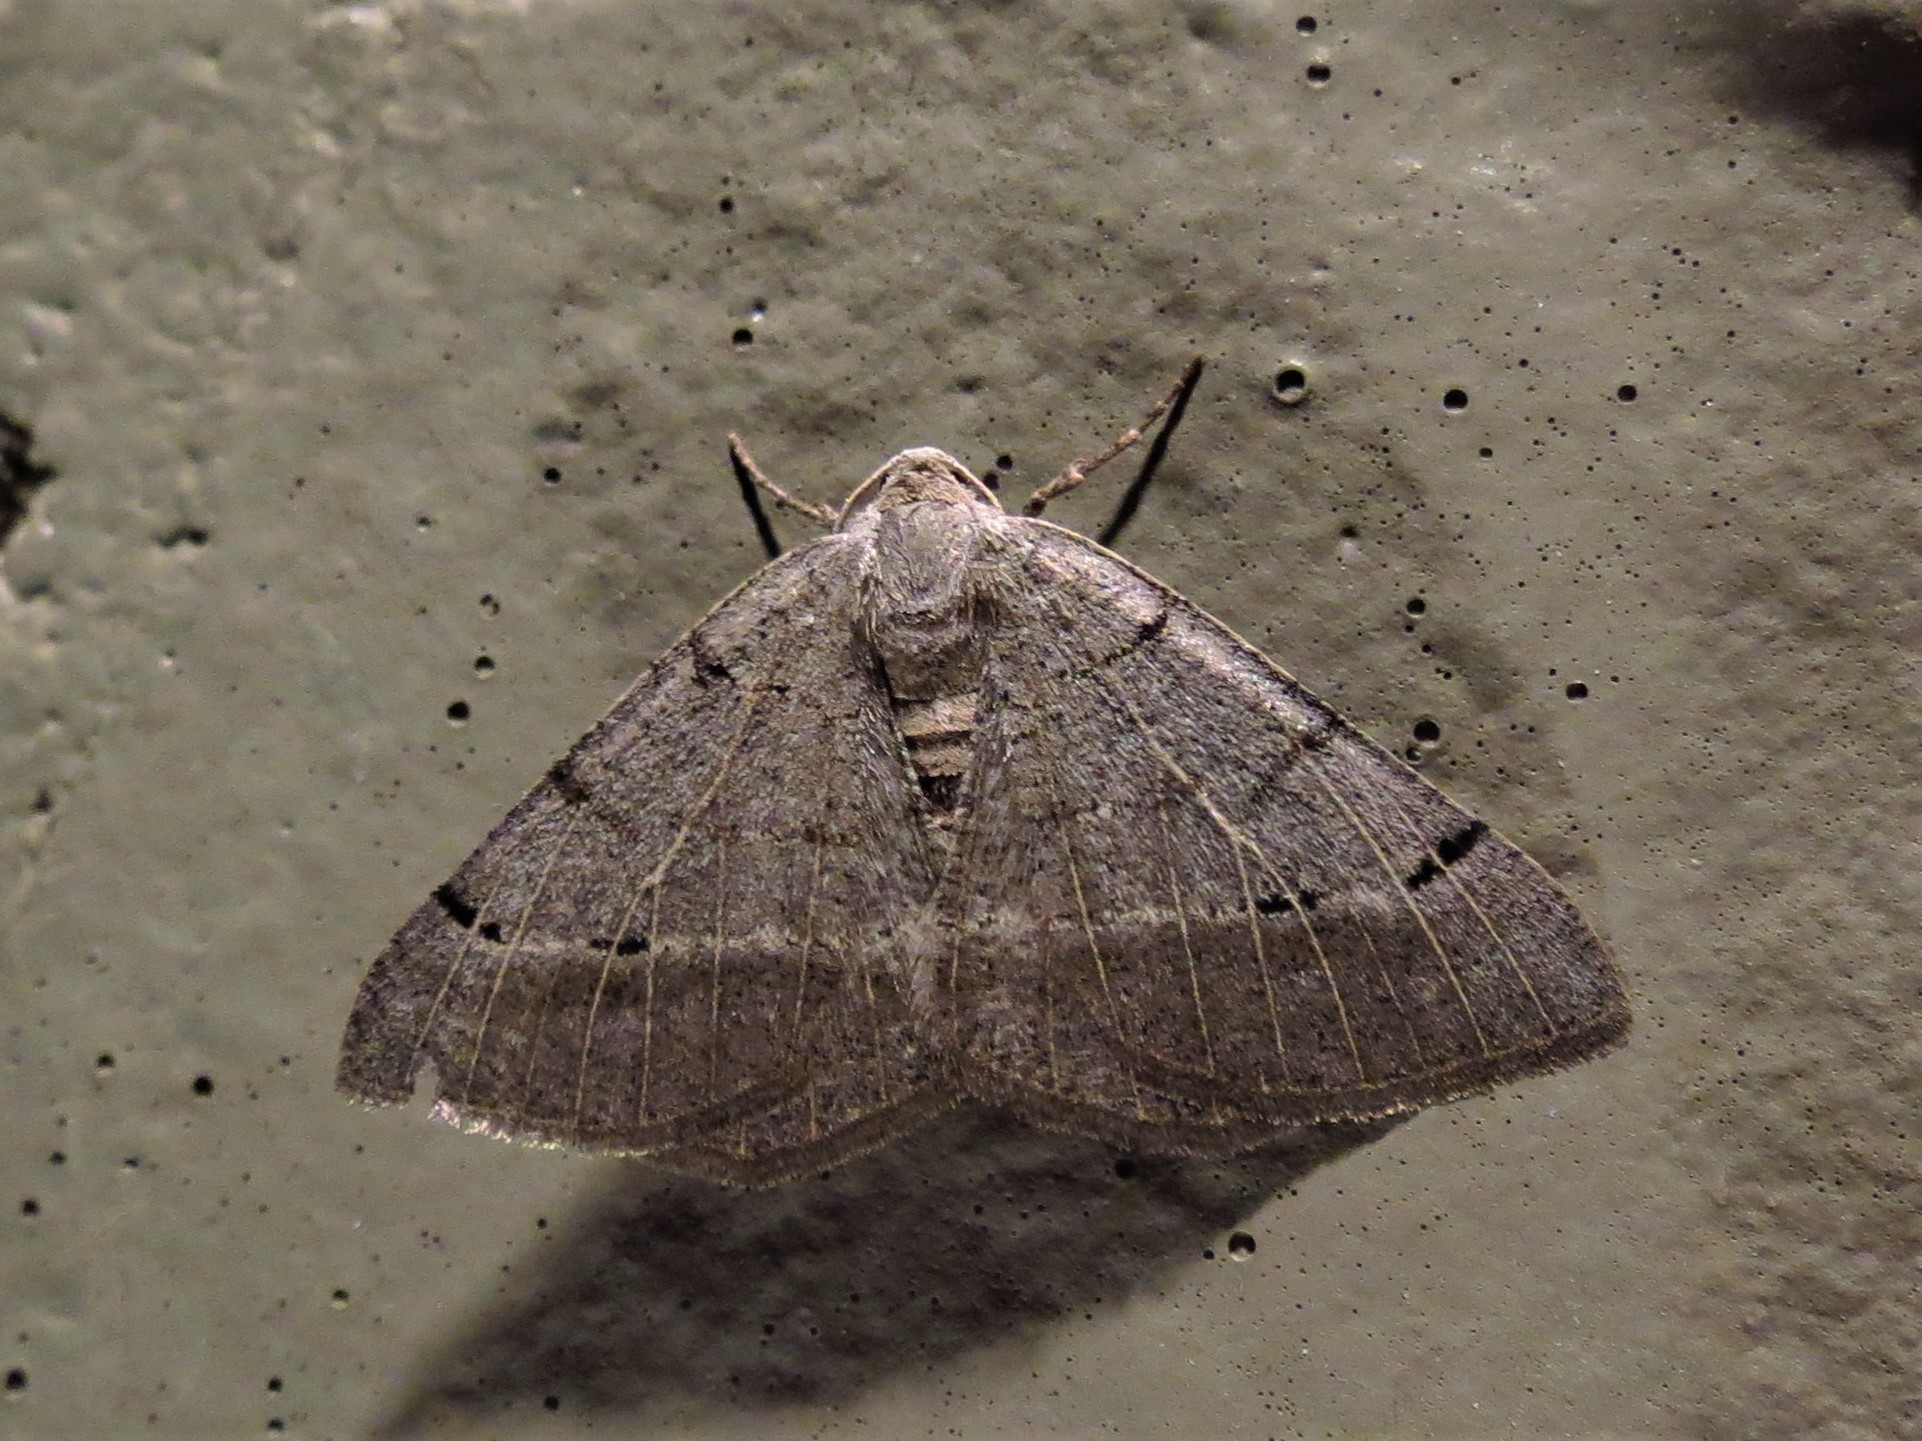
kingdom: Animalia
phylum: Arthropoda
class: Insecta
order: Lepidoptera
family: Geometridae
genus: Isturgia
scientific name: Isturgia dislocaria
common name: Pale-viened enconista
